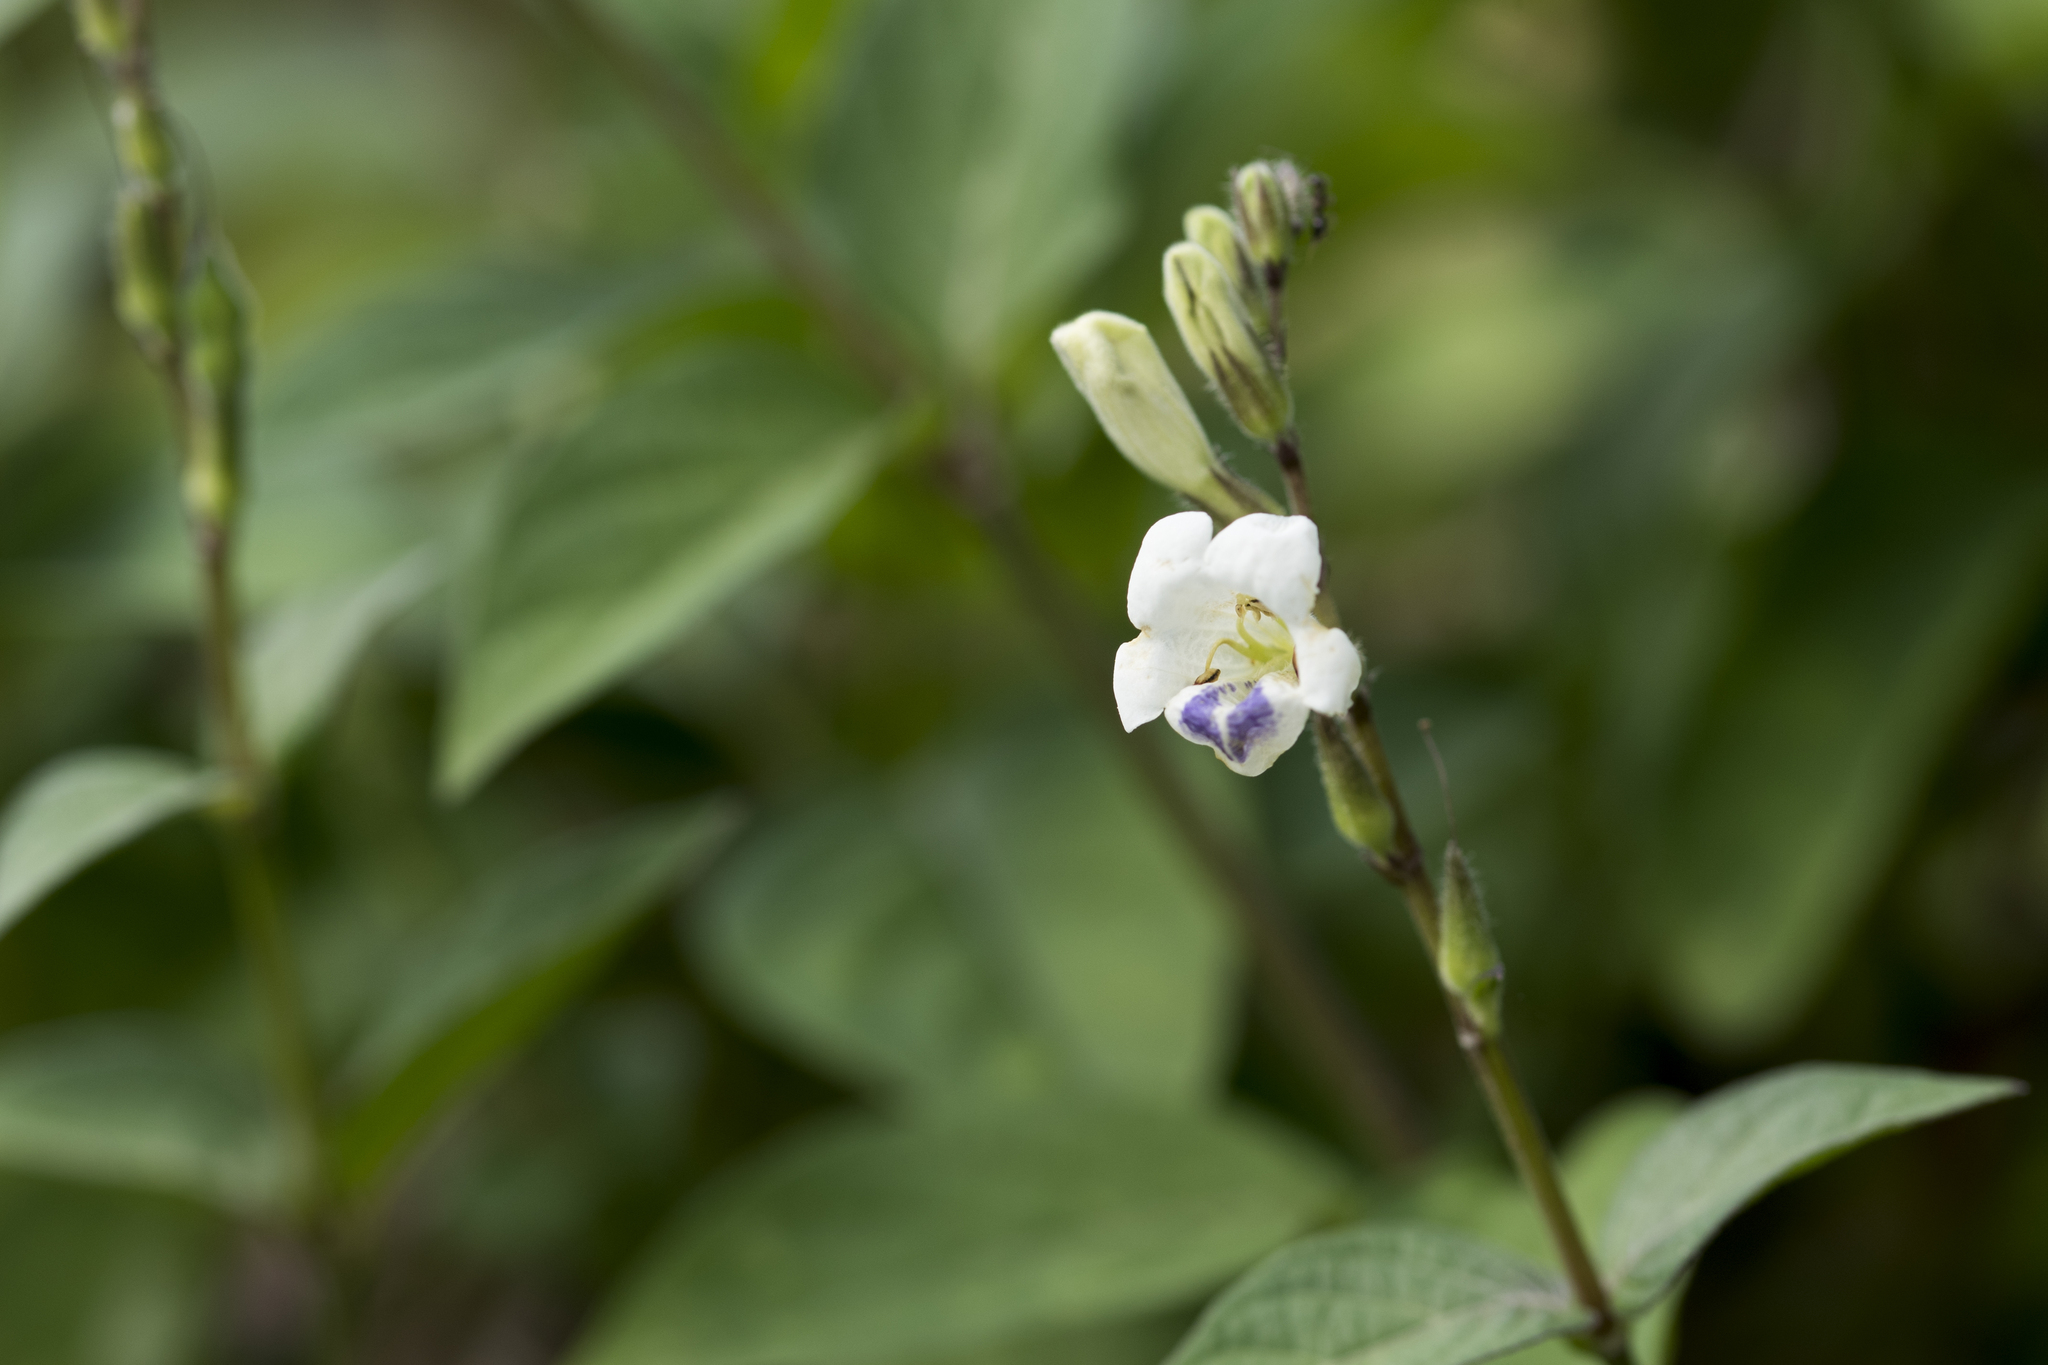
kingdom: Plantae
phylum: Tracheophyta
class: Magnoliopsida
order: Lamiales
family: Acanthaceae
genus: Asystasia
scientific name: Asystasia intrusa
